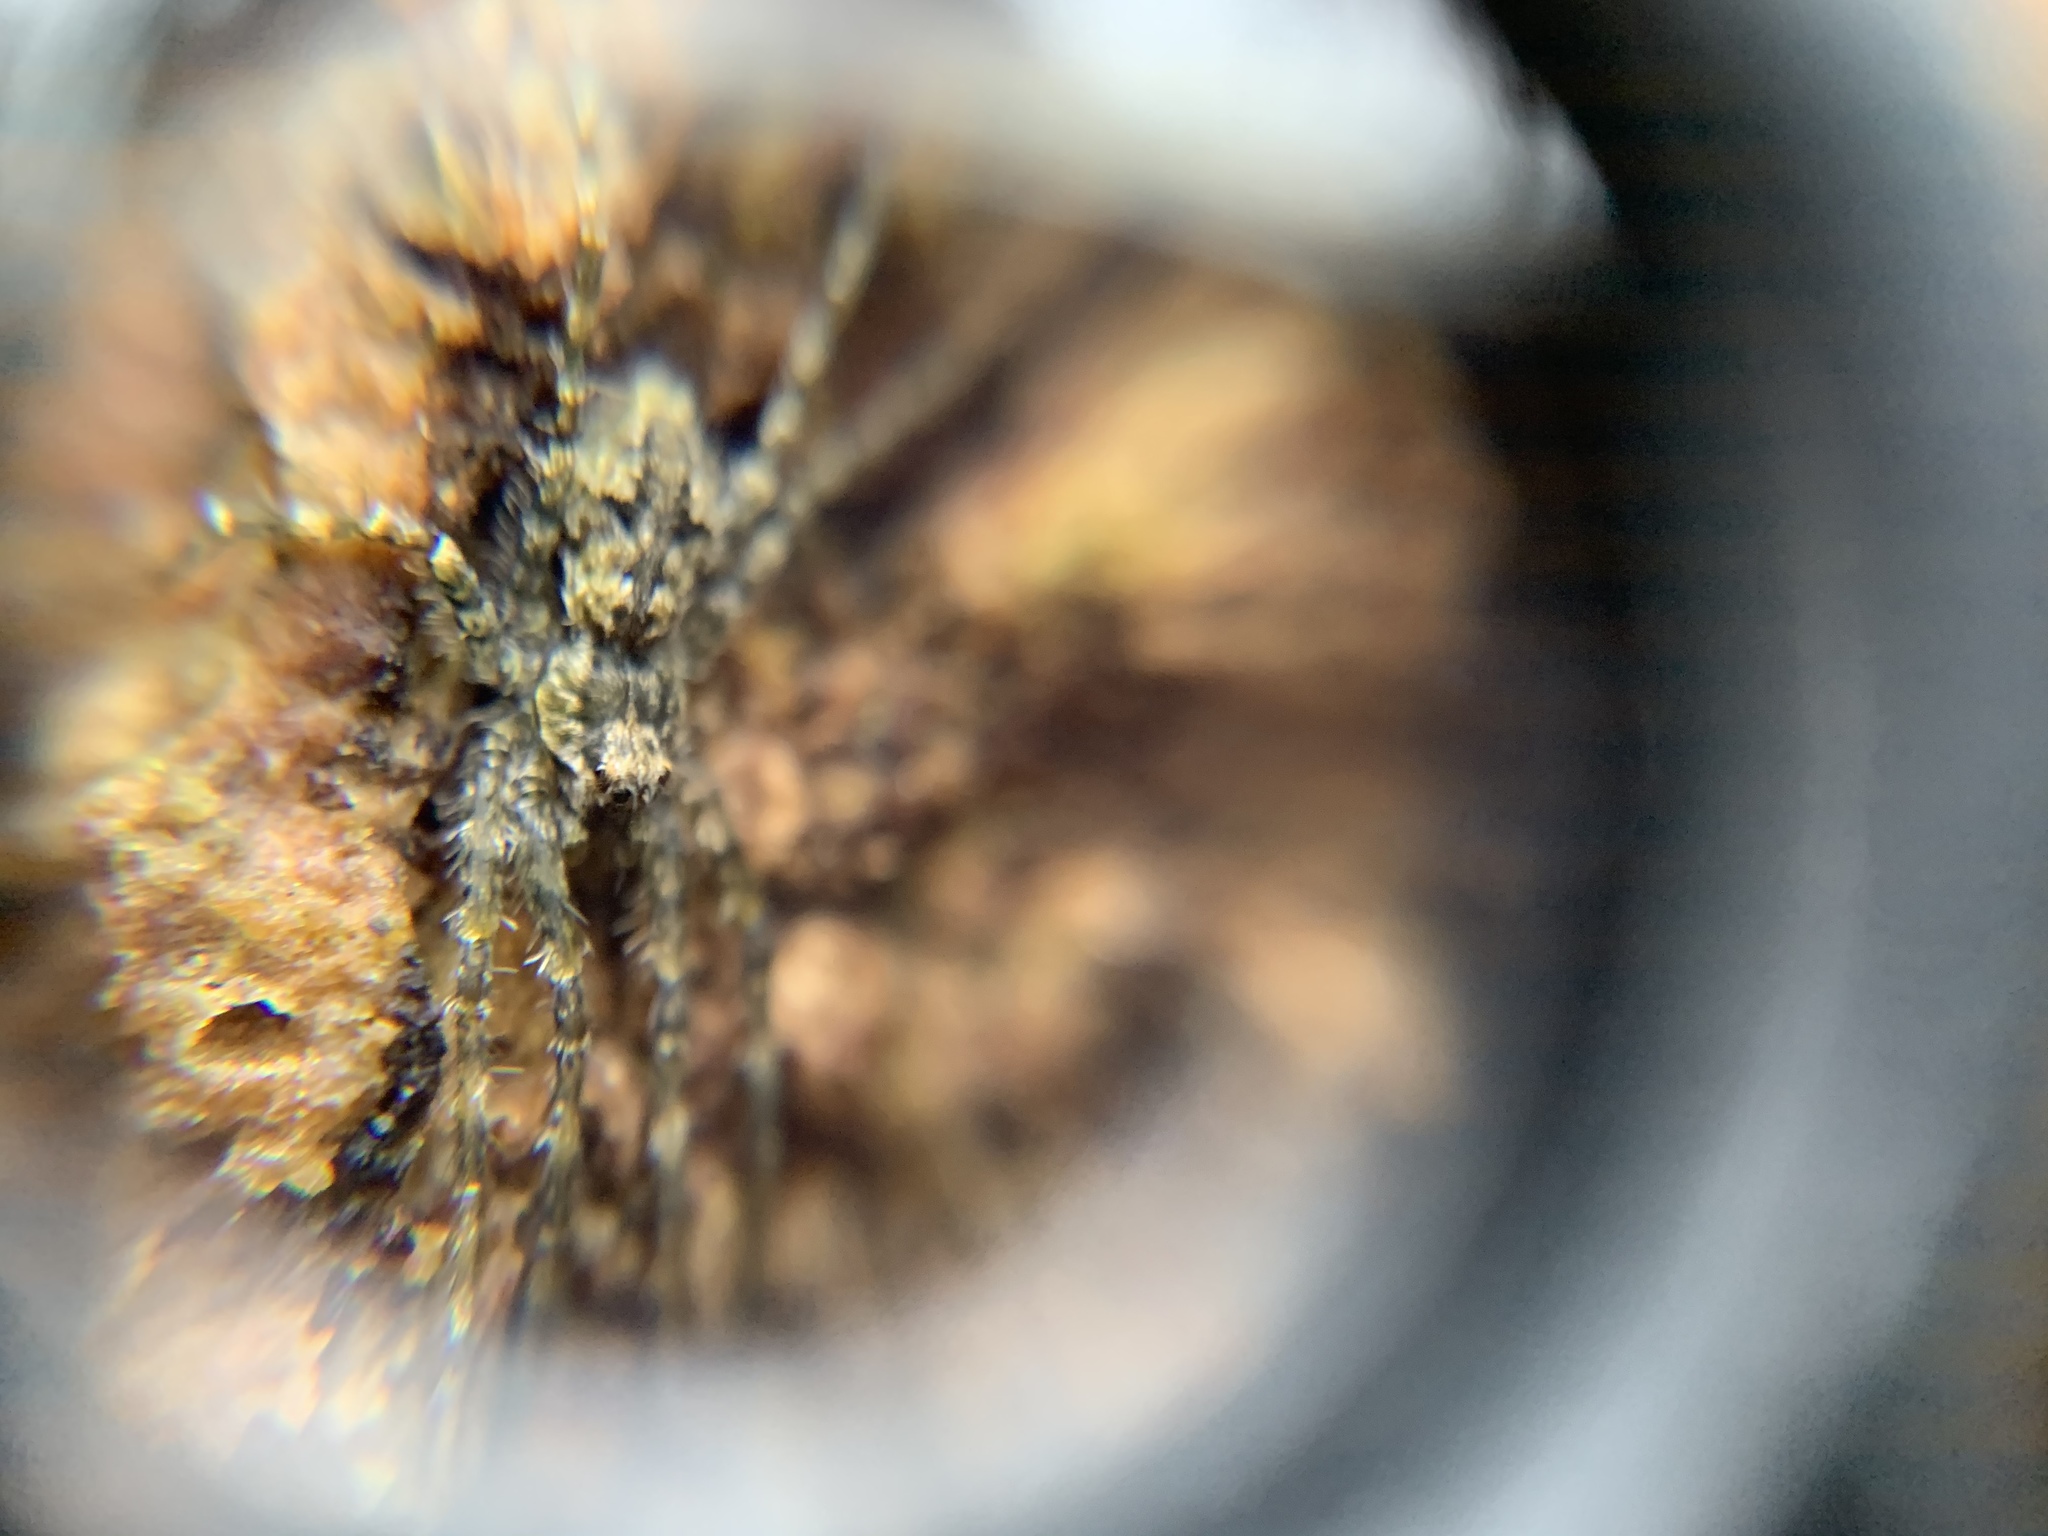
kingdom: Animalia
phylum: Arthropoda
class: Arachnida
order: Araneae
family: Pisauridae
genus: Dolomedes
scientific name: Dolomedes albineus
